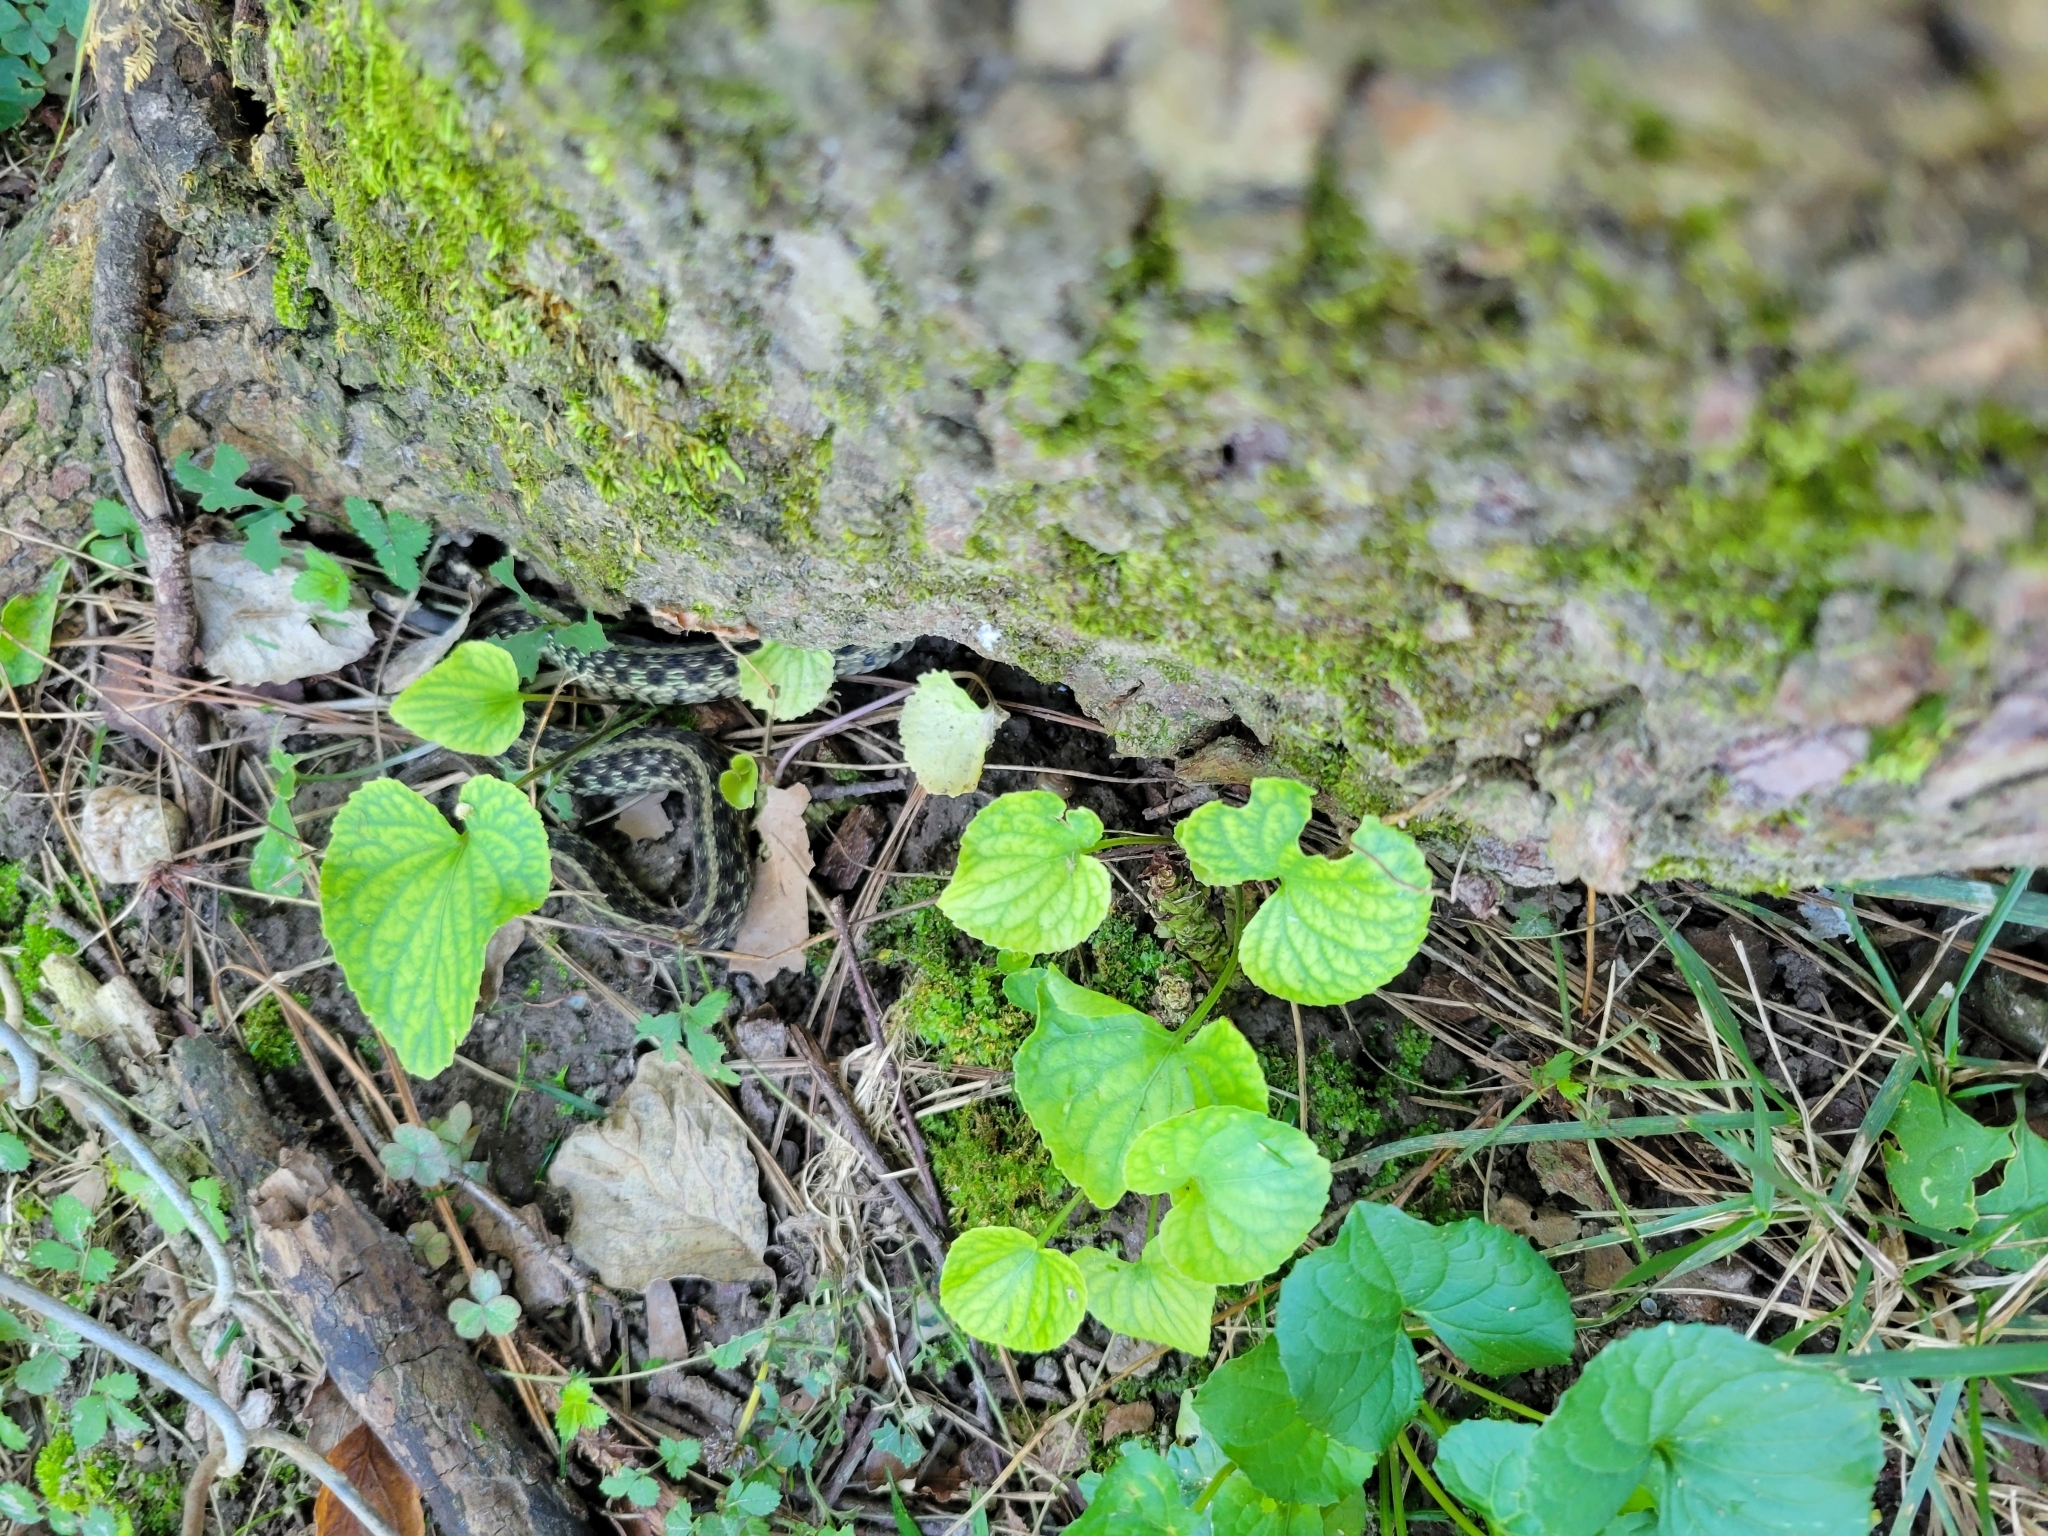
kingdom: Animalia
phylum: Chordata
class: Squamata
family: Colubridae
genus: Thamnophis
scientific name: Thamnophis sirtalis
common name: Common garter snake
